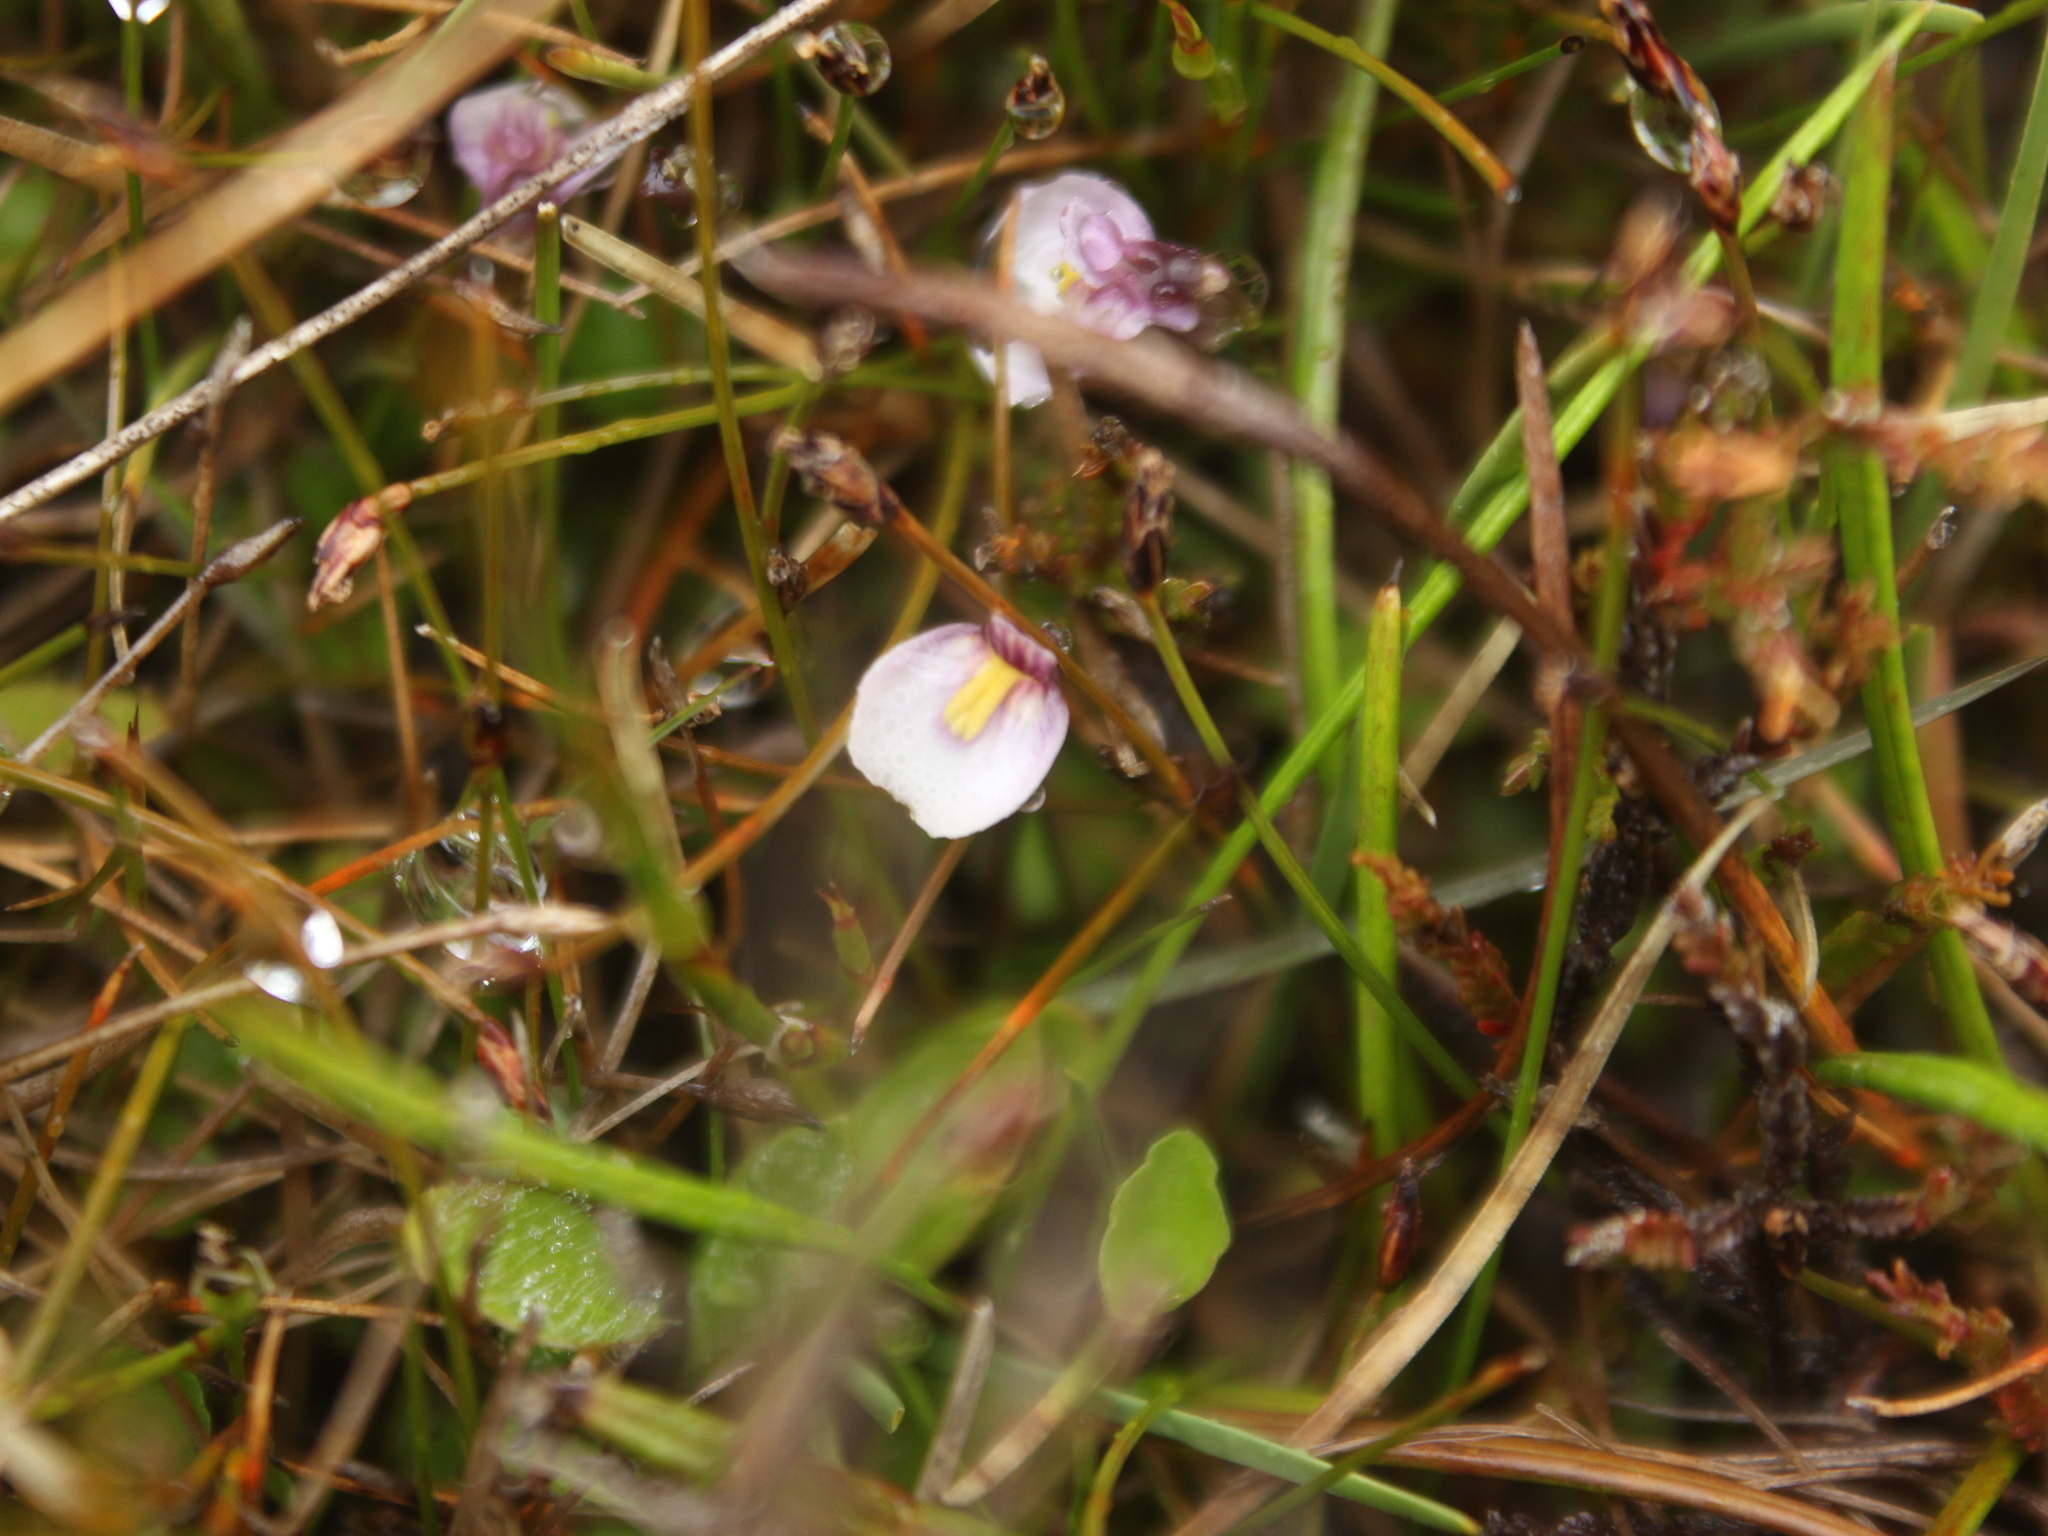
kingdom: Plantae
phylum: Tracheophyta
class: Magnoliopsida
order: Lamiales
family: Lentibulariaceae
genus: Utricularia
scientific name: Utricularia dichotoma
